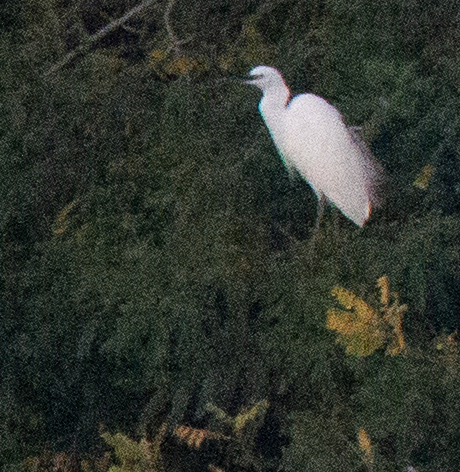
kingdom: Animalia
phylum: Chordata
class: Aves
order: Pelecaniformes
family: Ardeidae
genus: Egretta
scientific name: Egretta garzetta
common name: Little egret
